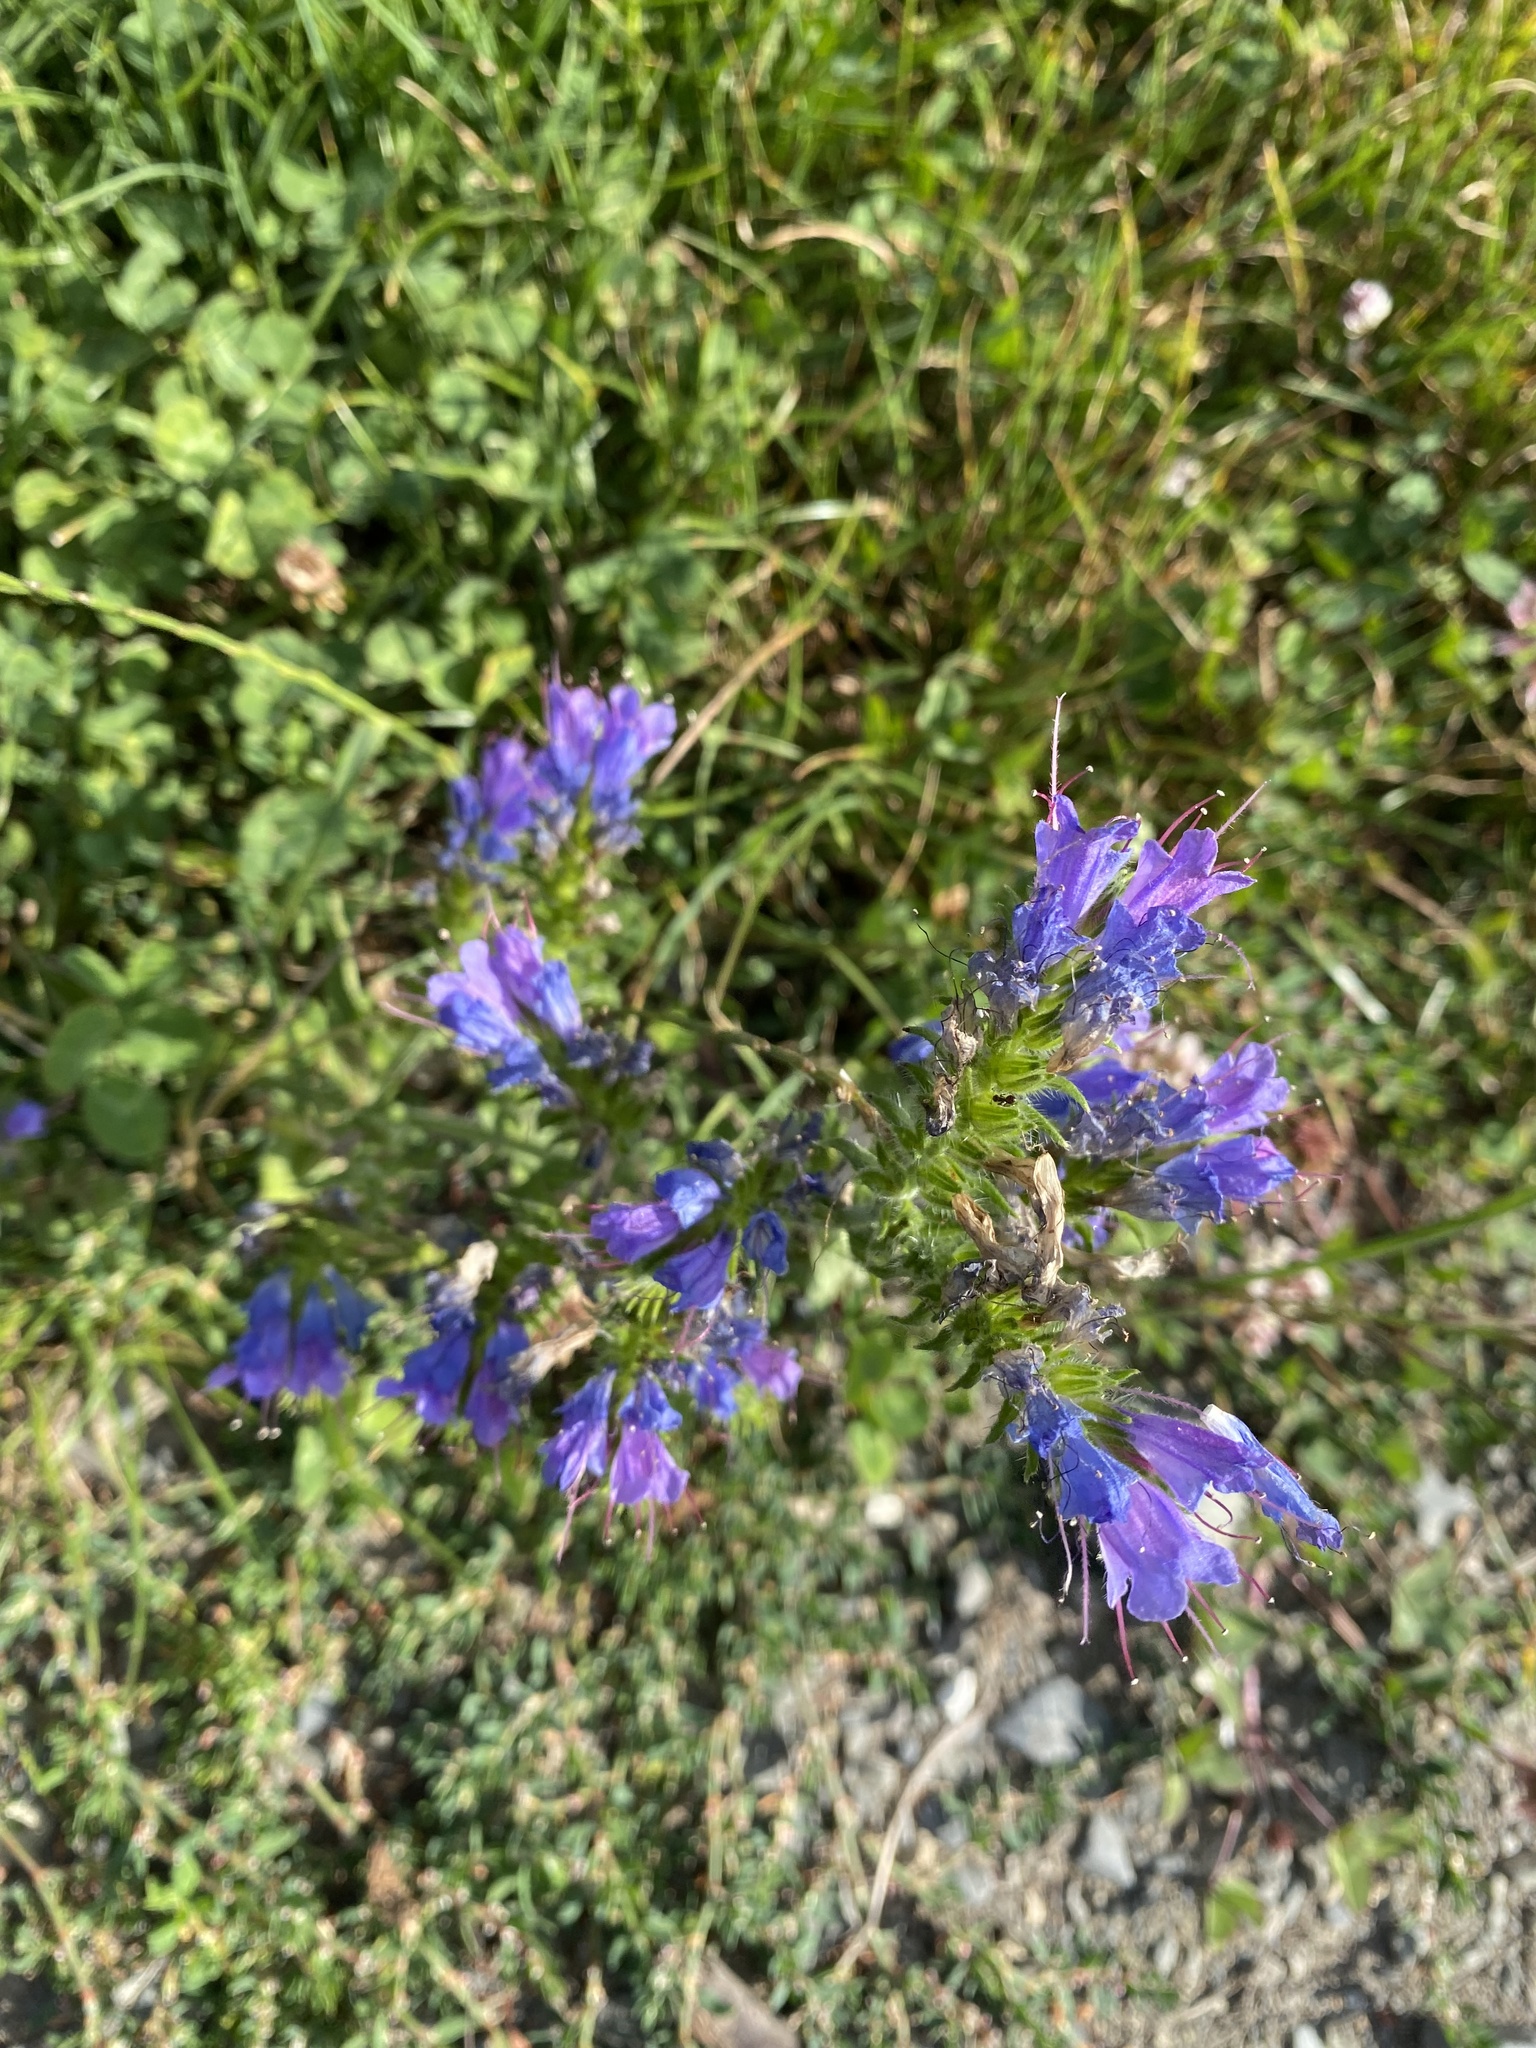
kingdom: Plantae
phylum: Tracheophyta
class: Magnoliopsida
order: Boraginales
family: Boraginaceae
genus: Echium
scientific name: Echium vulgare
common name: Common viper's bugloss
